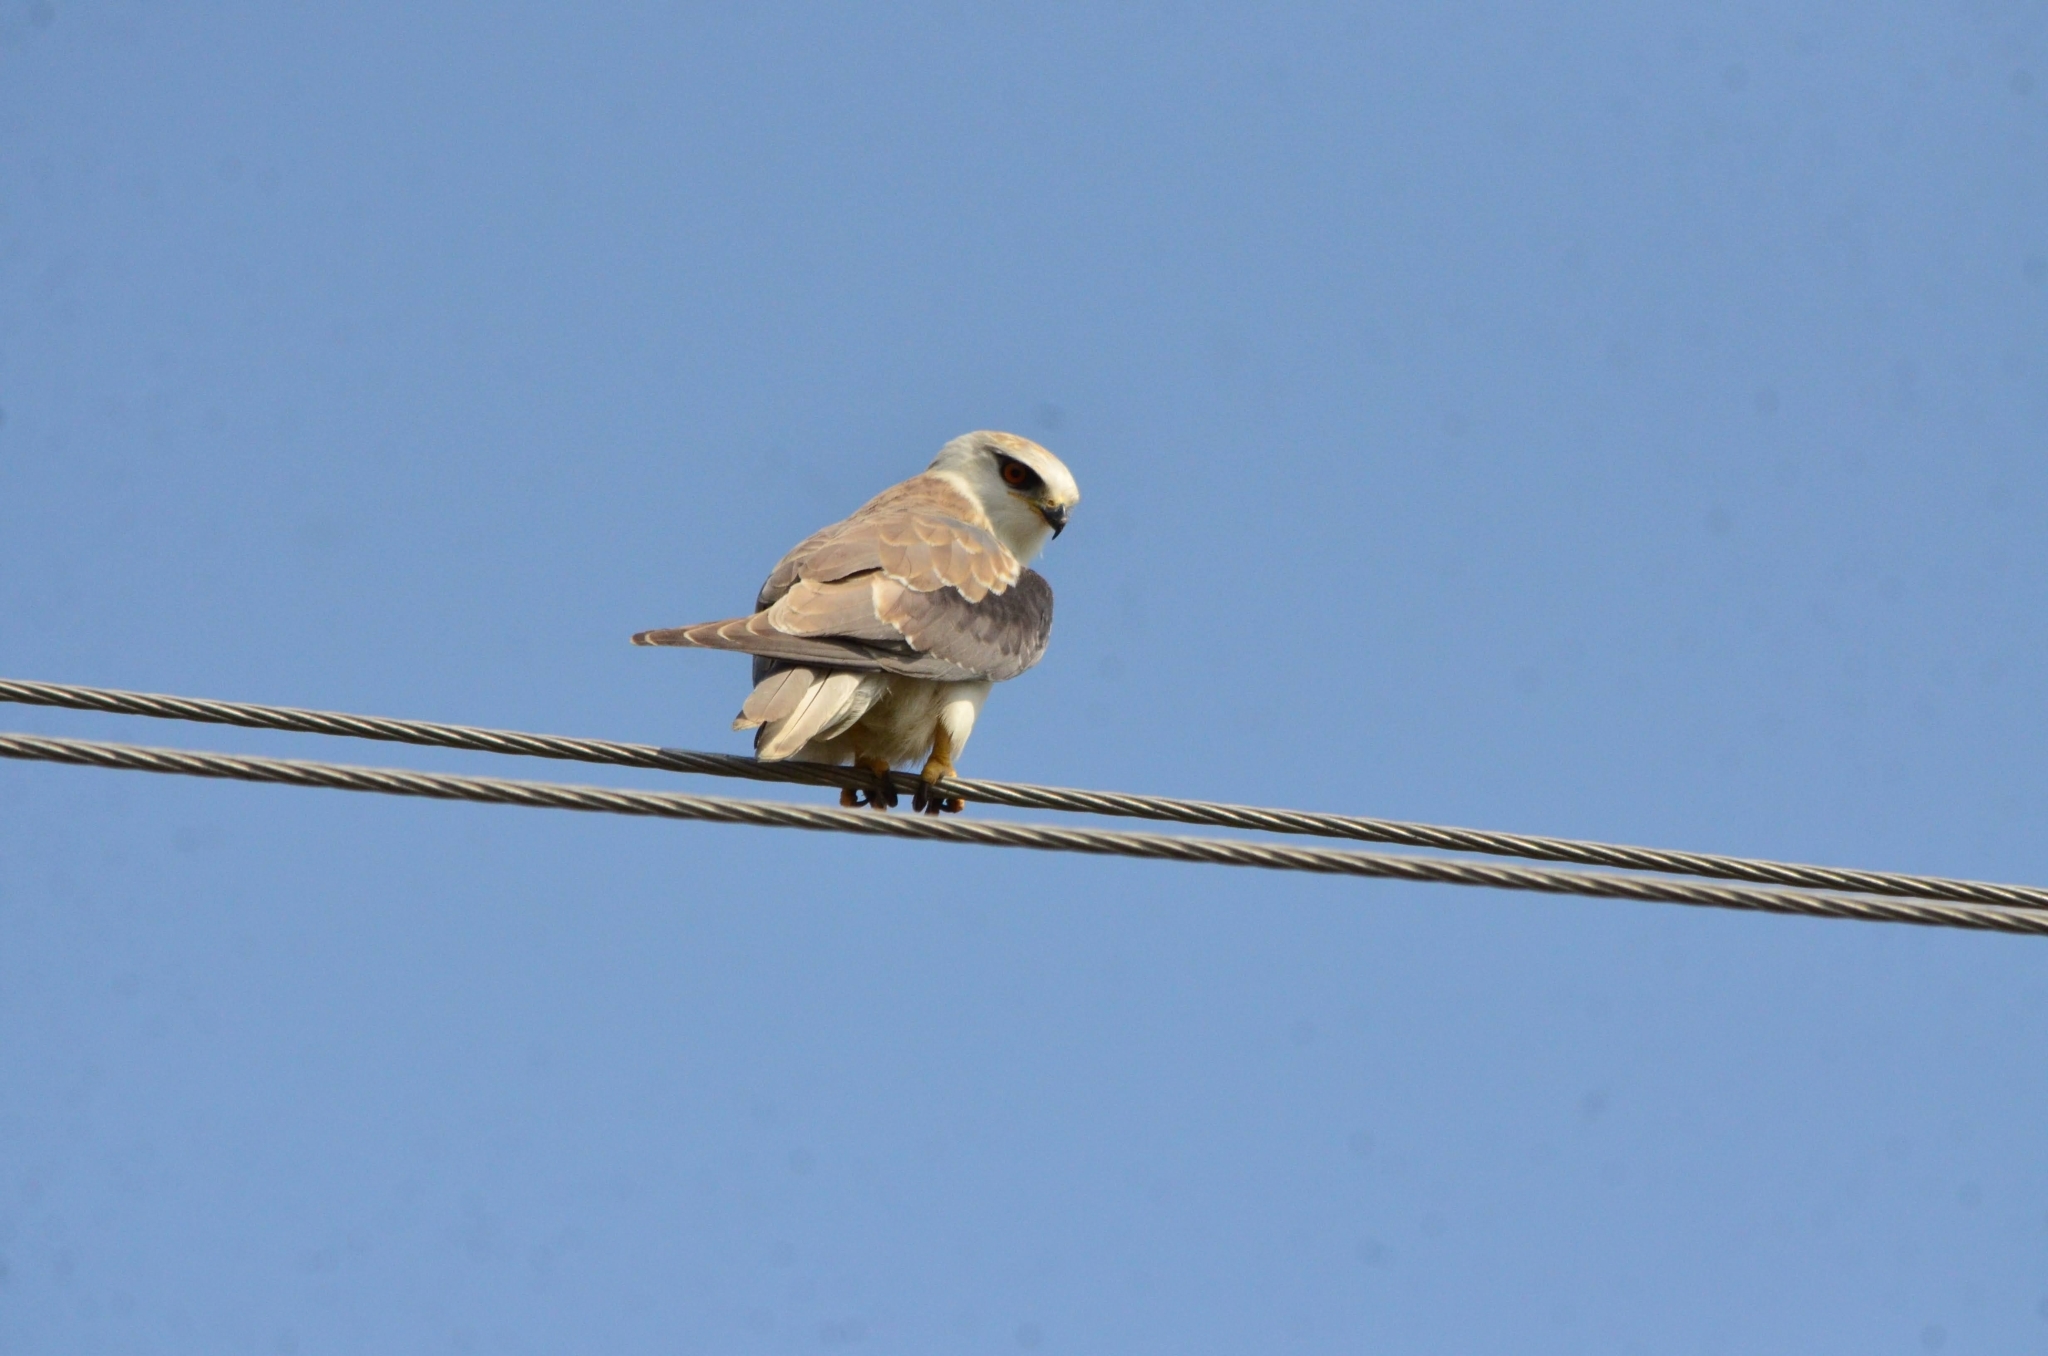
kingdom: Animalia
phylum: Chordata
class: Aves
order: Accipitriformes
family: Accipitridae
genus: Elanus
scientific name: Elanus caeruleus
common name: Black-winged kite
